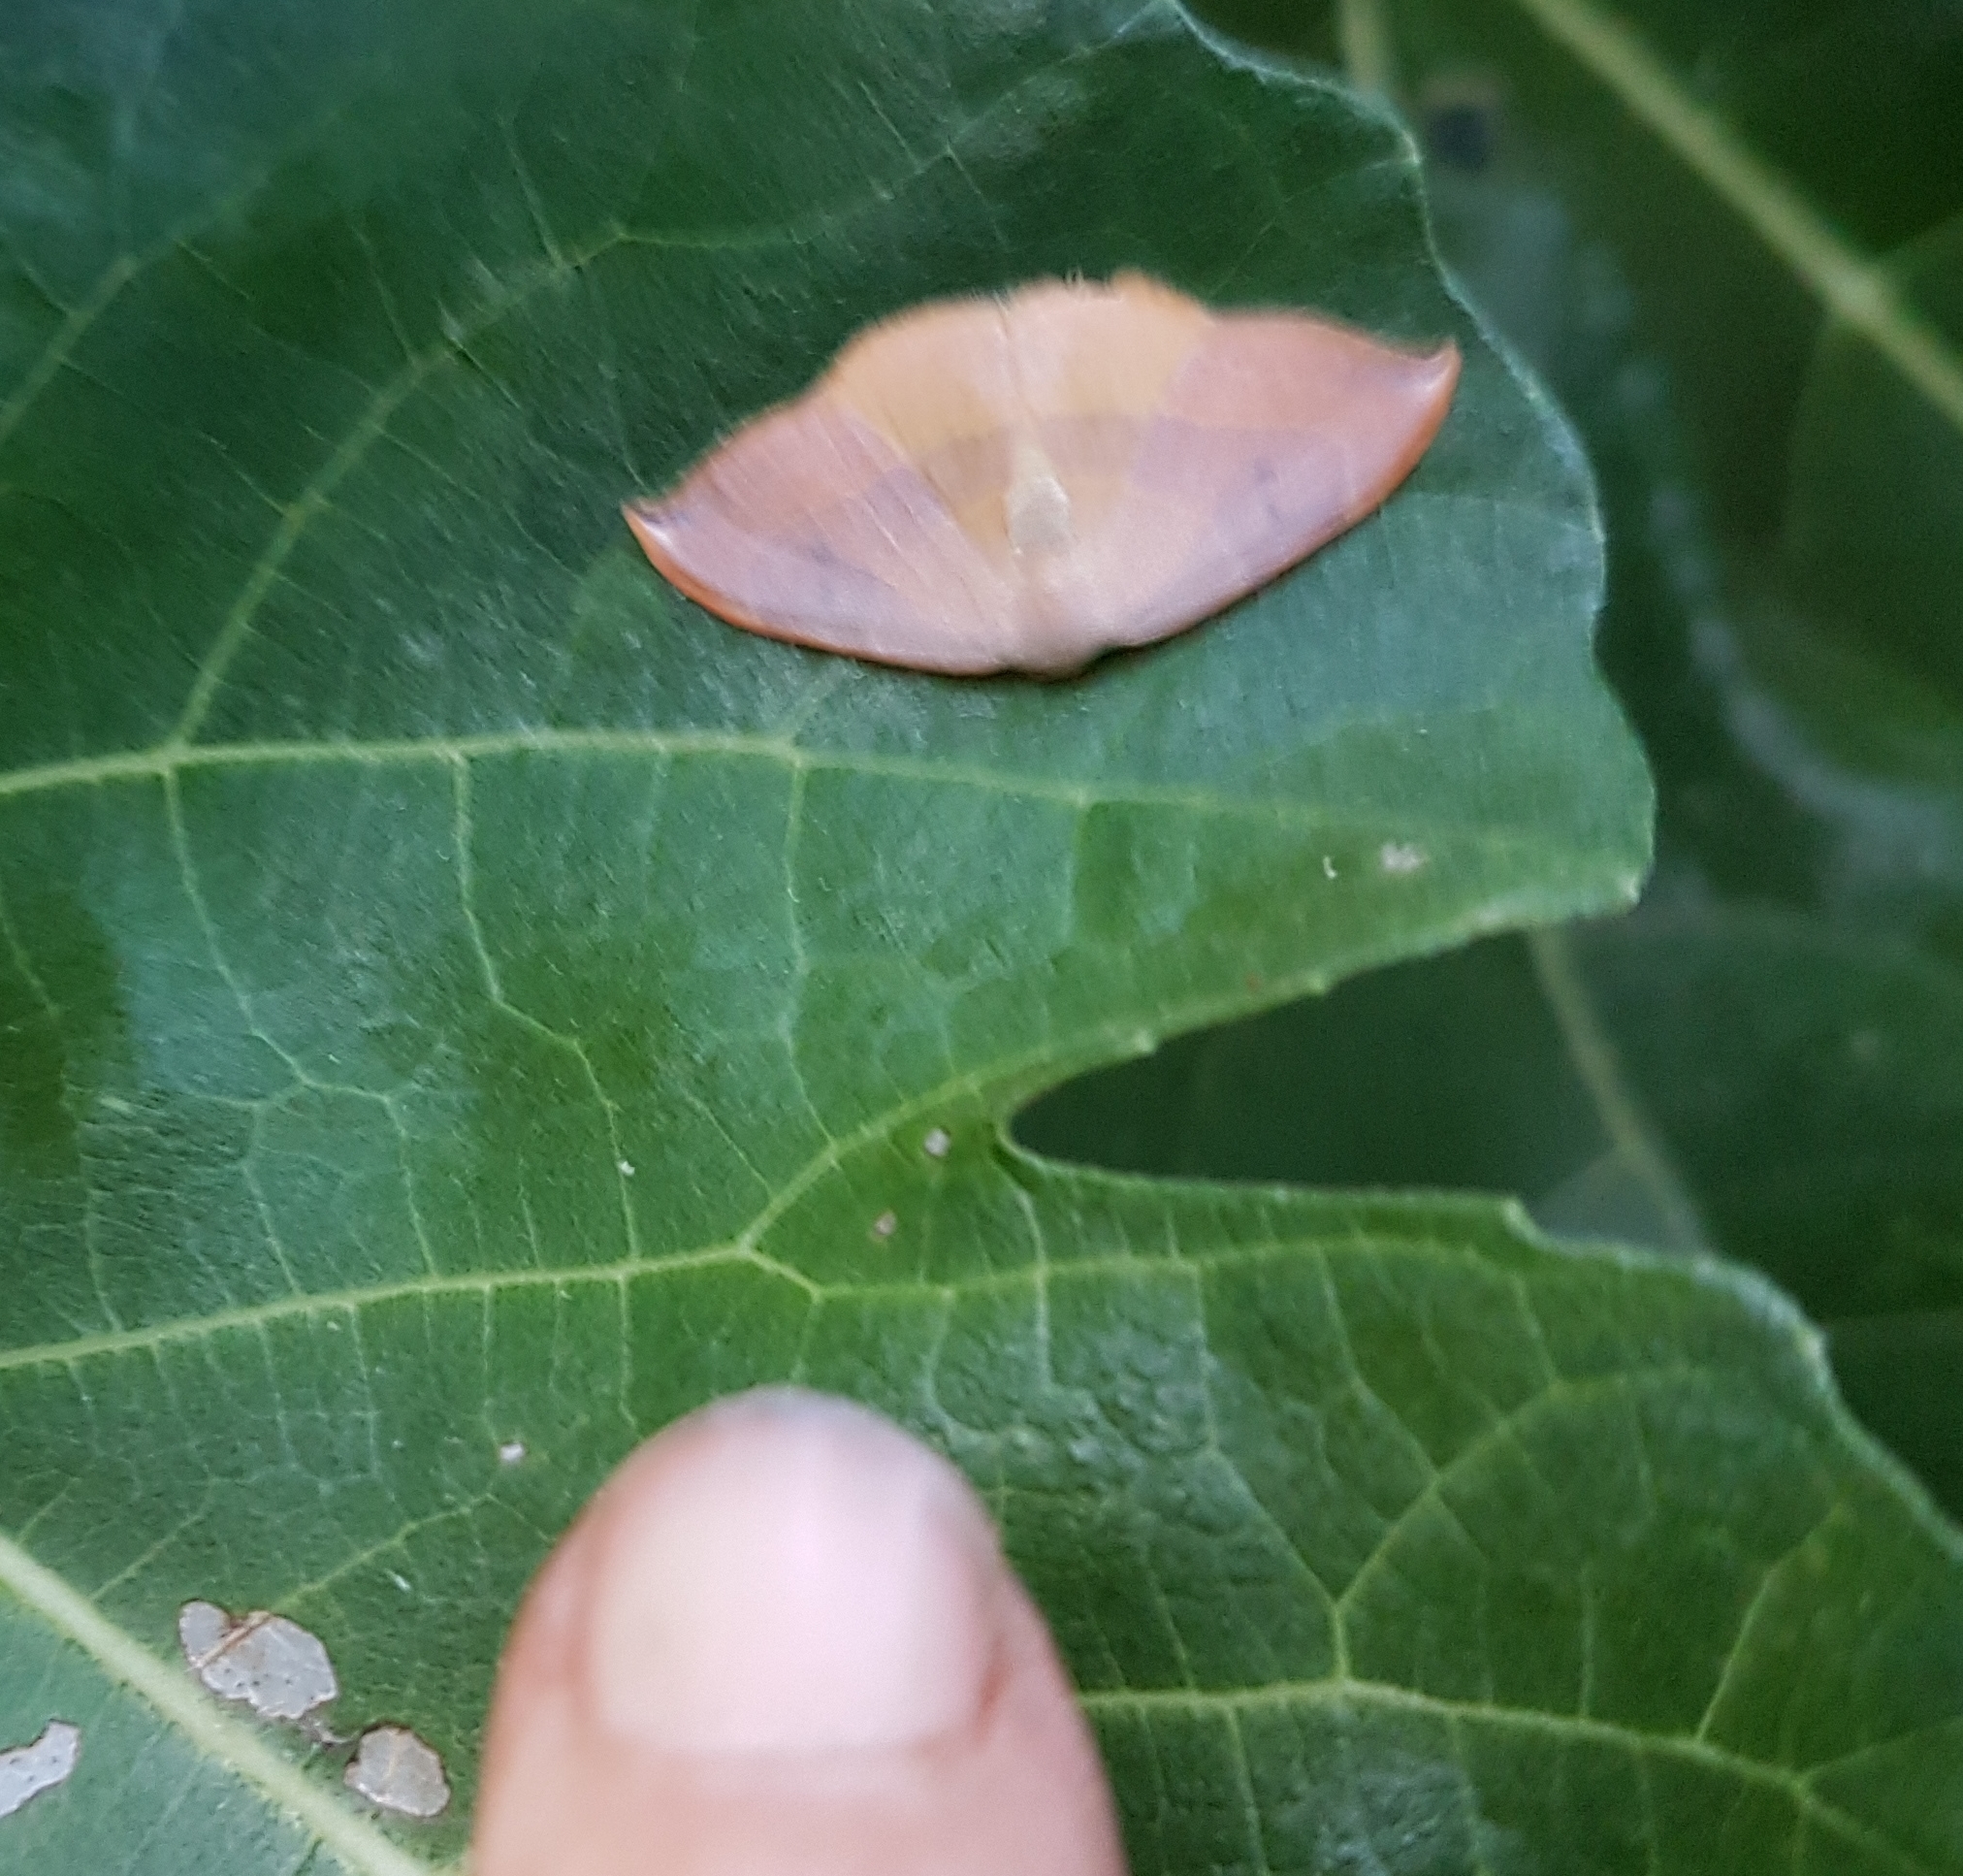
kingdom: Animalia
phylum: Arthropoda
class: Insecta
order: Lepidoptera
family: Drepanidae
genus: Watsonalla
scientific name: Watsonalla uncinula
